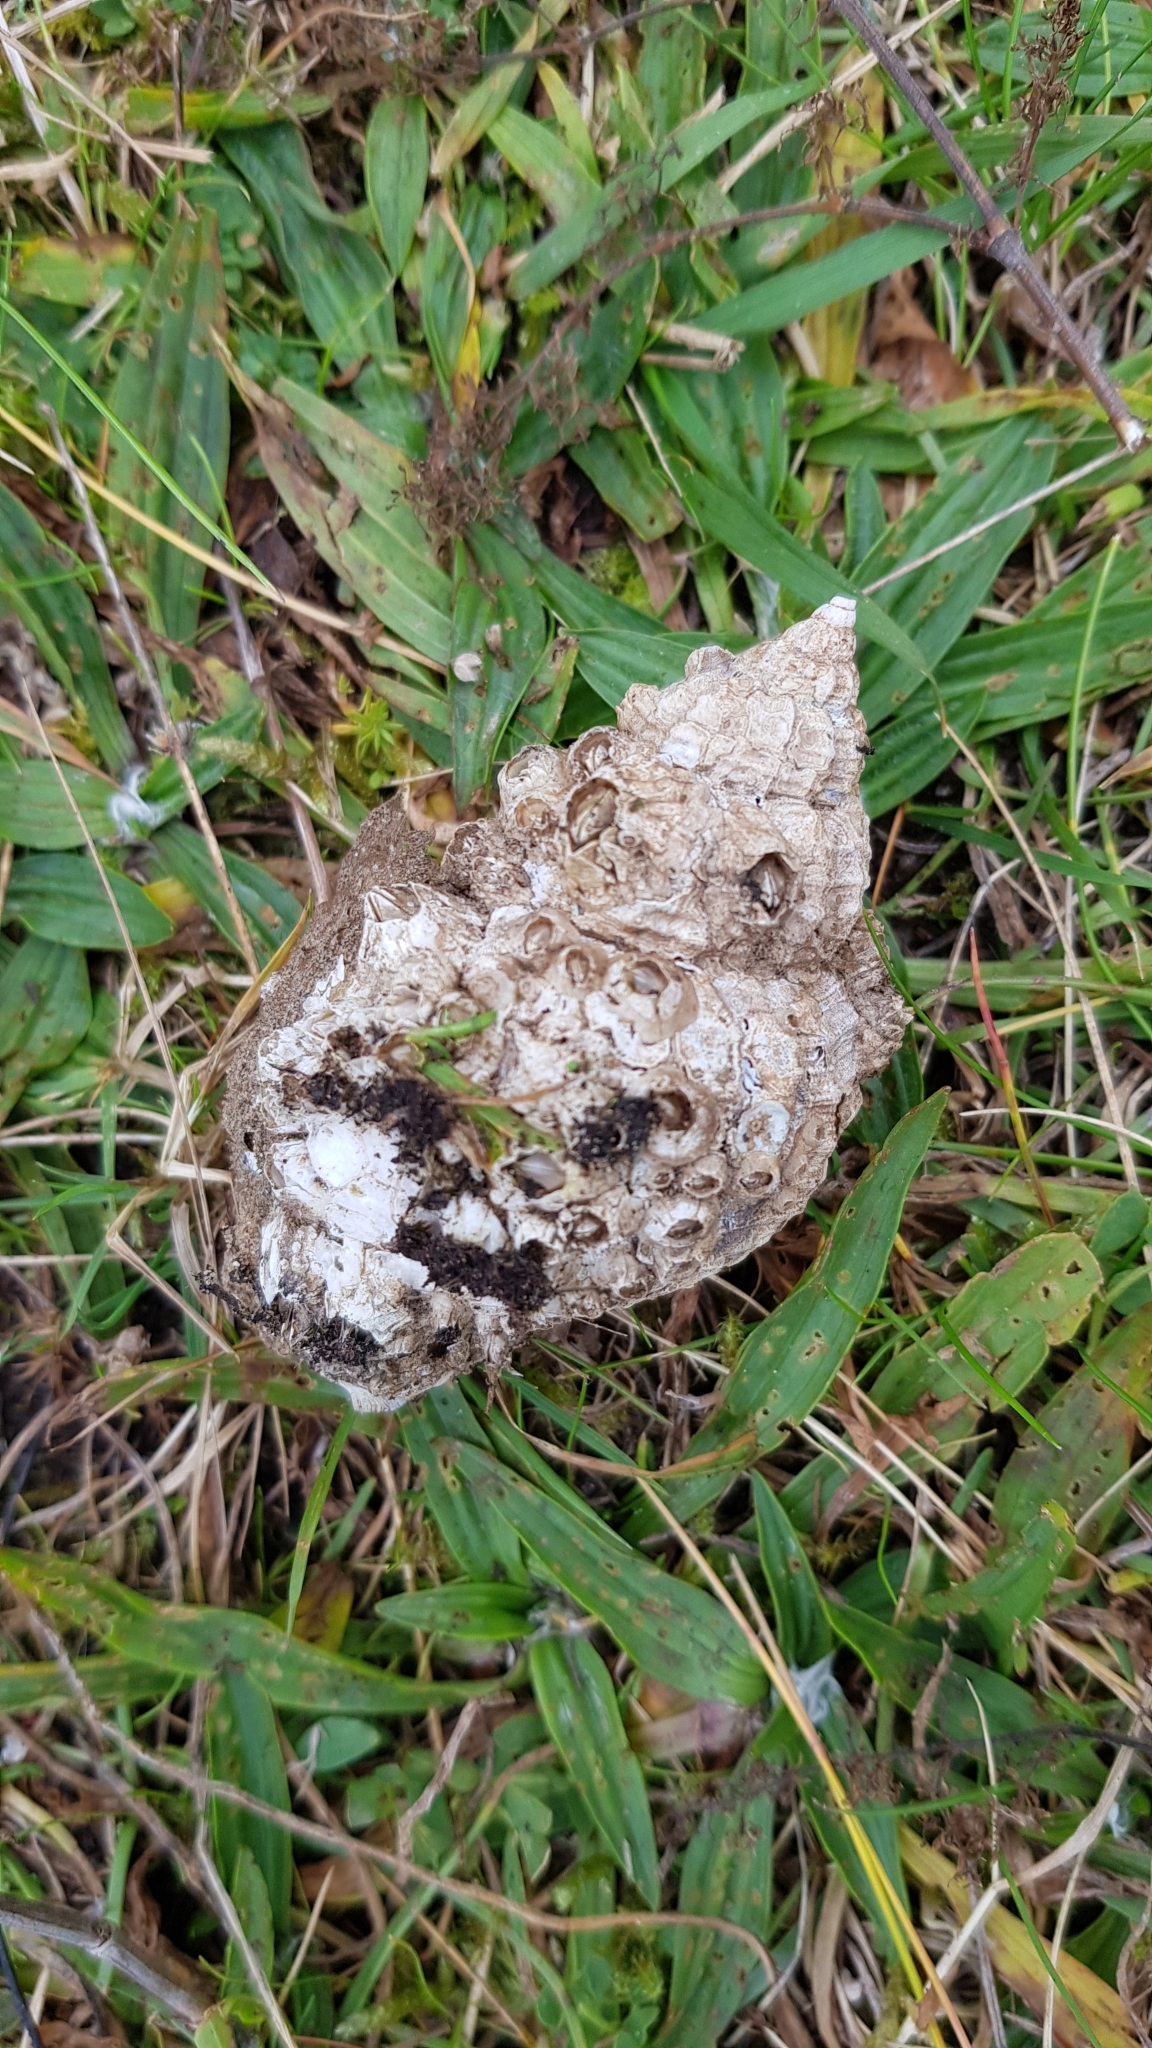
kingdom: Animalia
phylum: Mollusca
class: Gastropoda
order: Neogastropoda
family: Buccinidae
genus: Buccinum
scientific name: Buccinum undatum
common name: Common whelk
